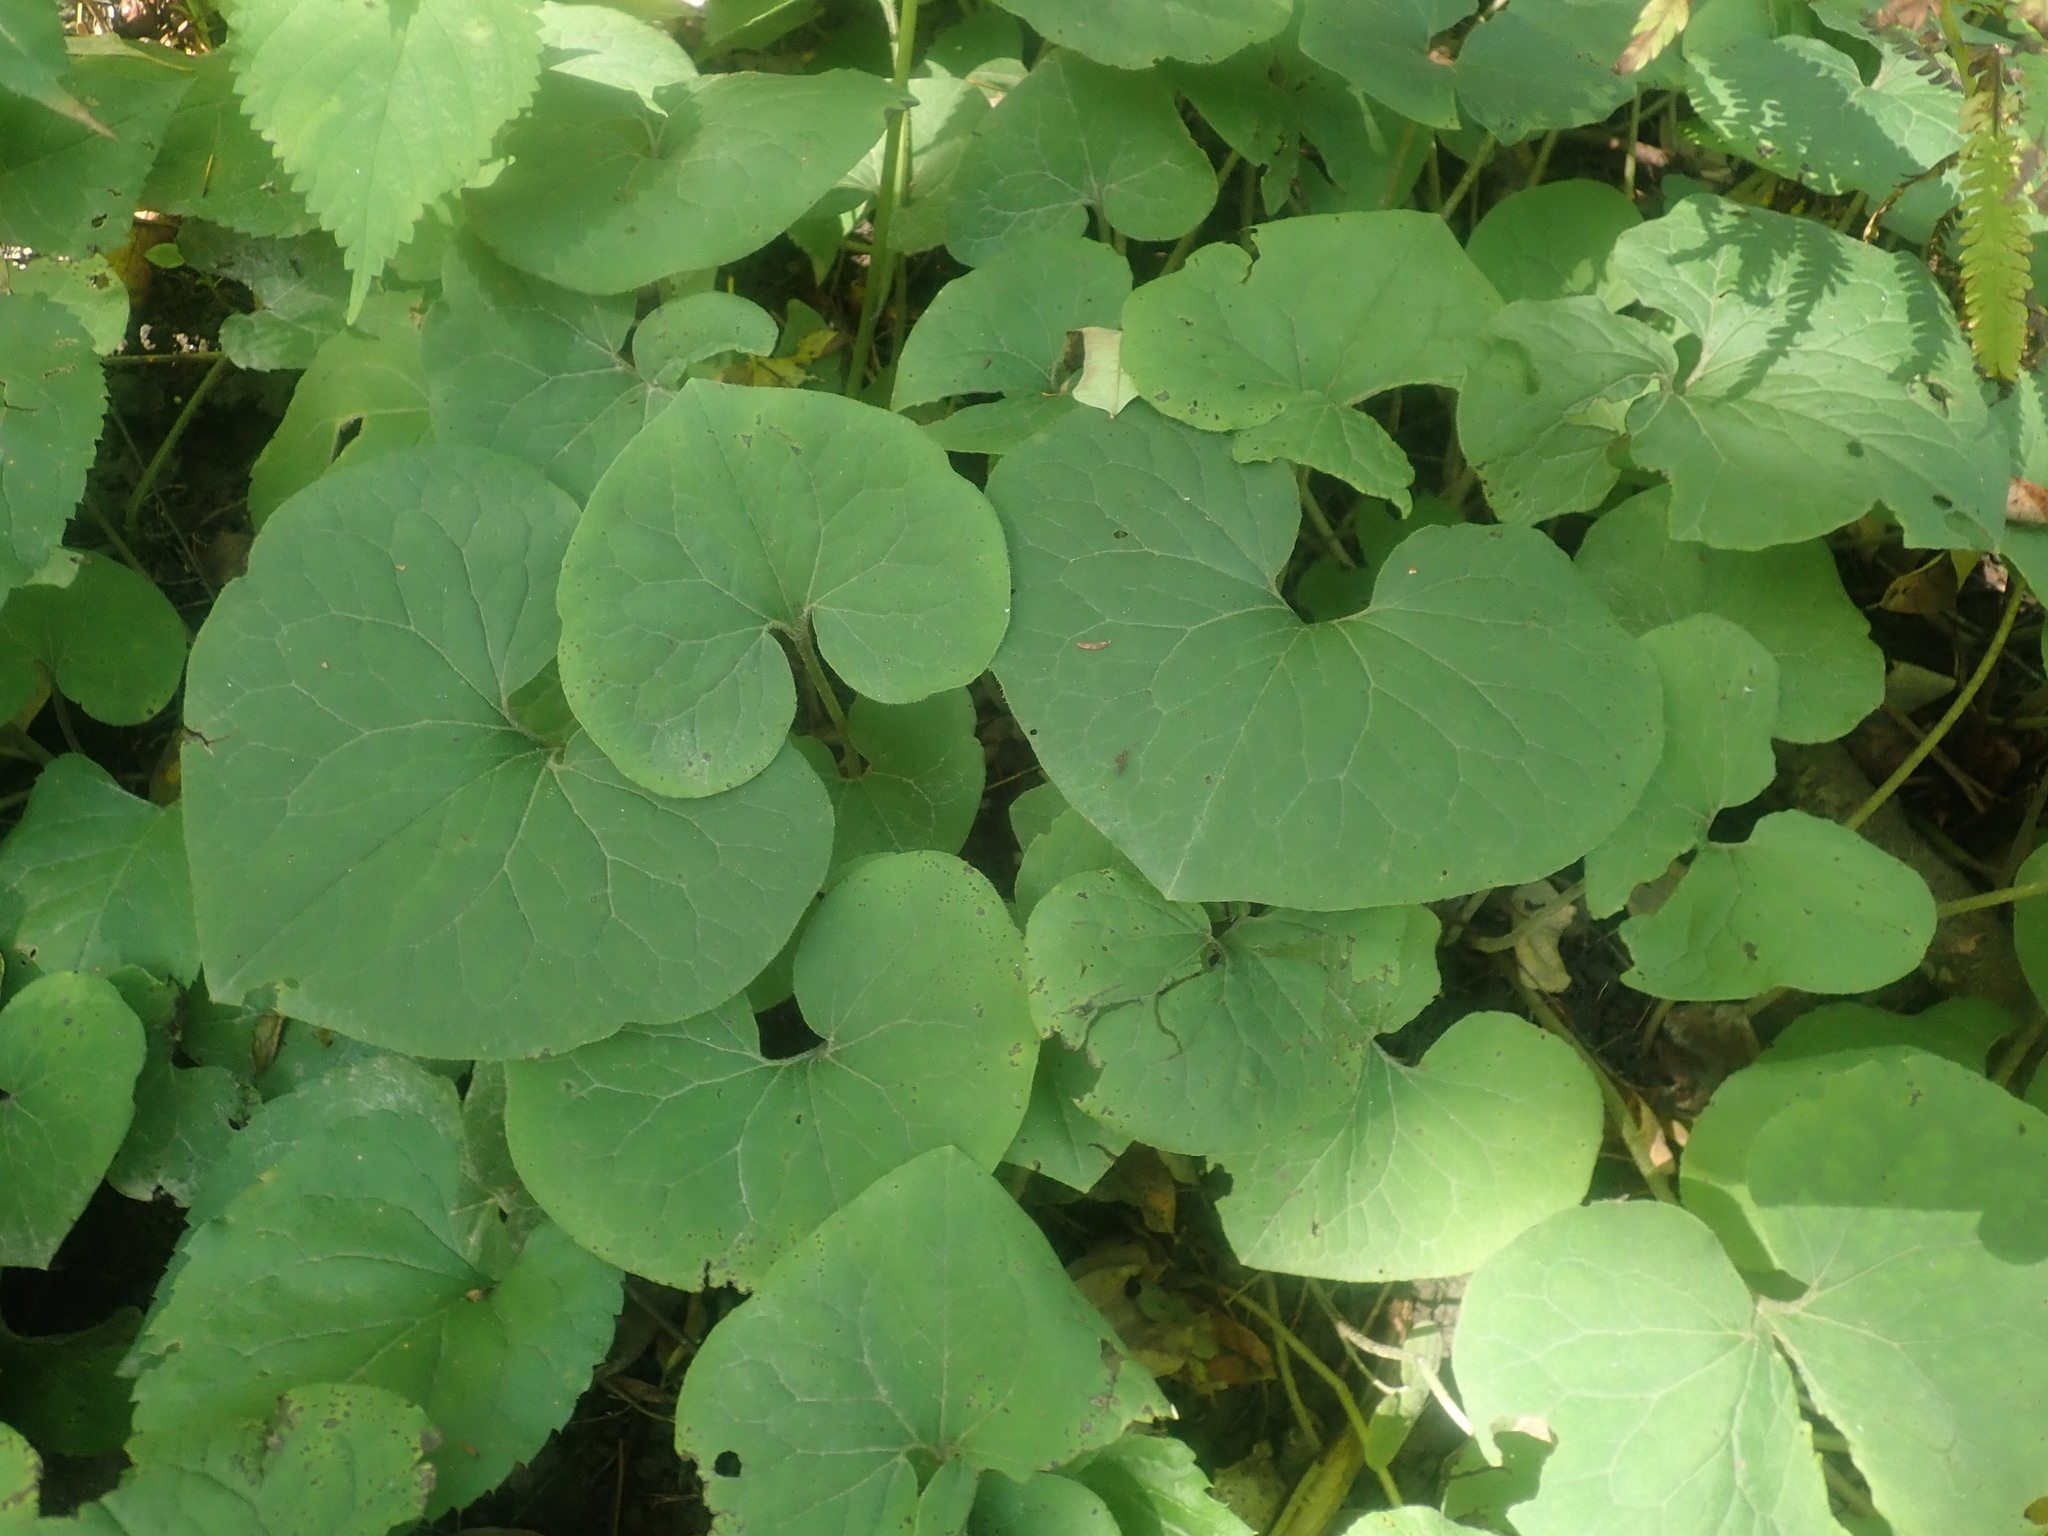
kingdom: Plantae
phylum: Tracheophyta
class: Magnoliopsida
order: Piperales
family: Aristolochiaceae
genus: Asarum
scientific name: Asarum canadense
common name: Wild ginger
